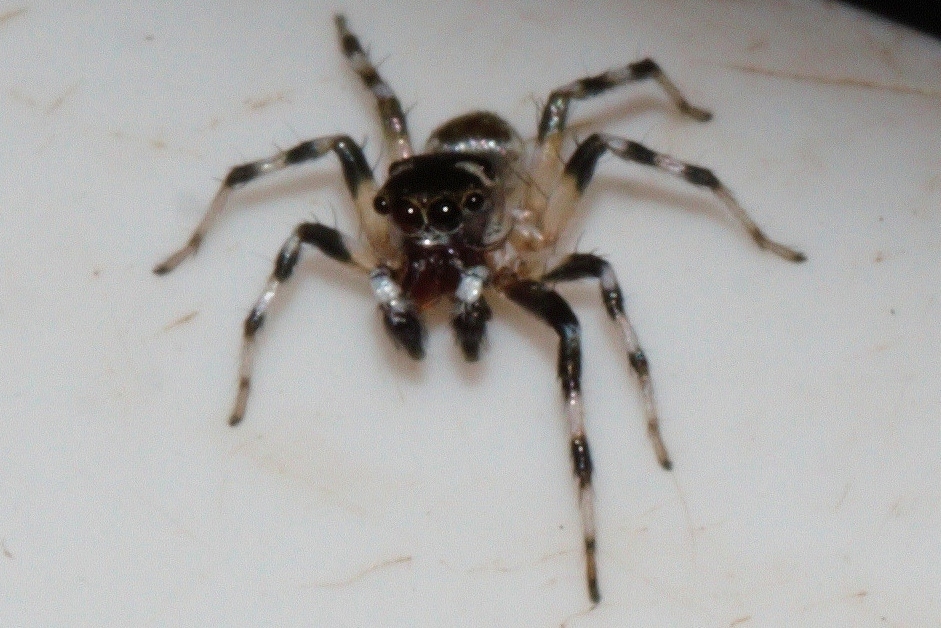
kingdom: Animalia
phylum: Arthropoda
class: Arachnida
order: Araneae
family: Salticidae
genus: Phintella
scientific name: Phintella aequipes
